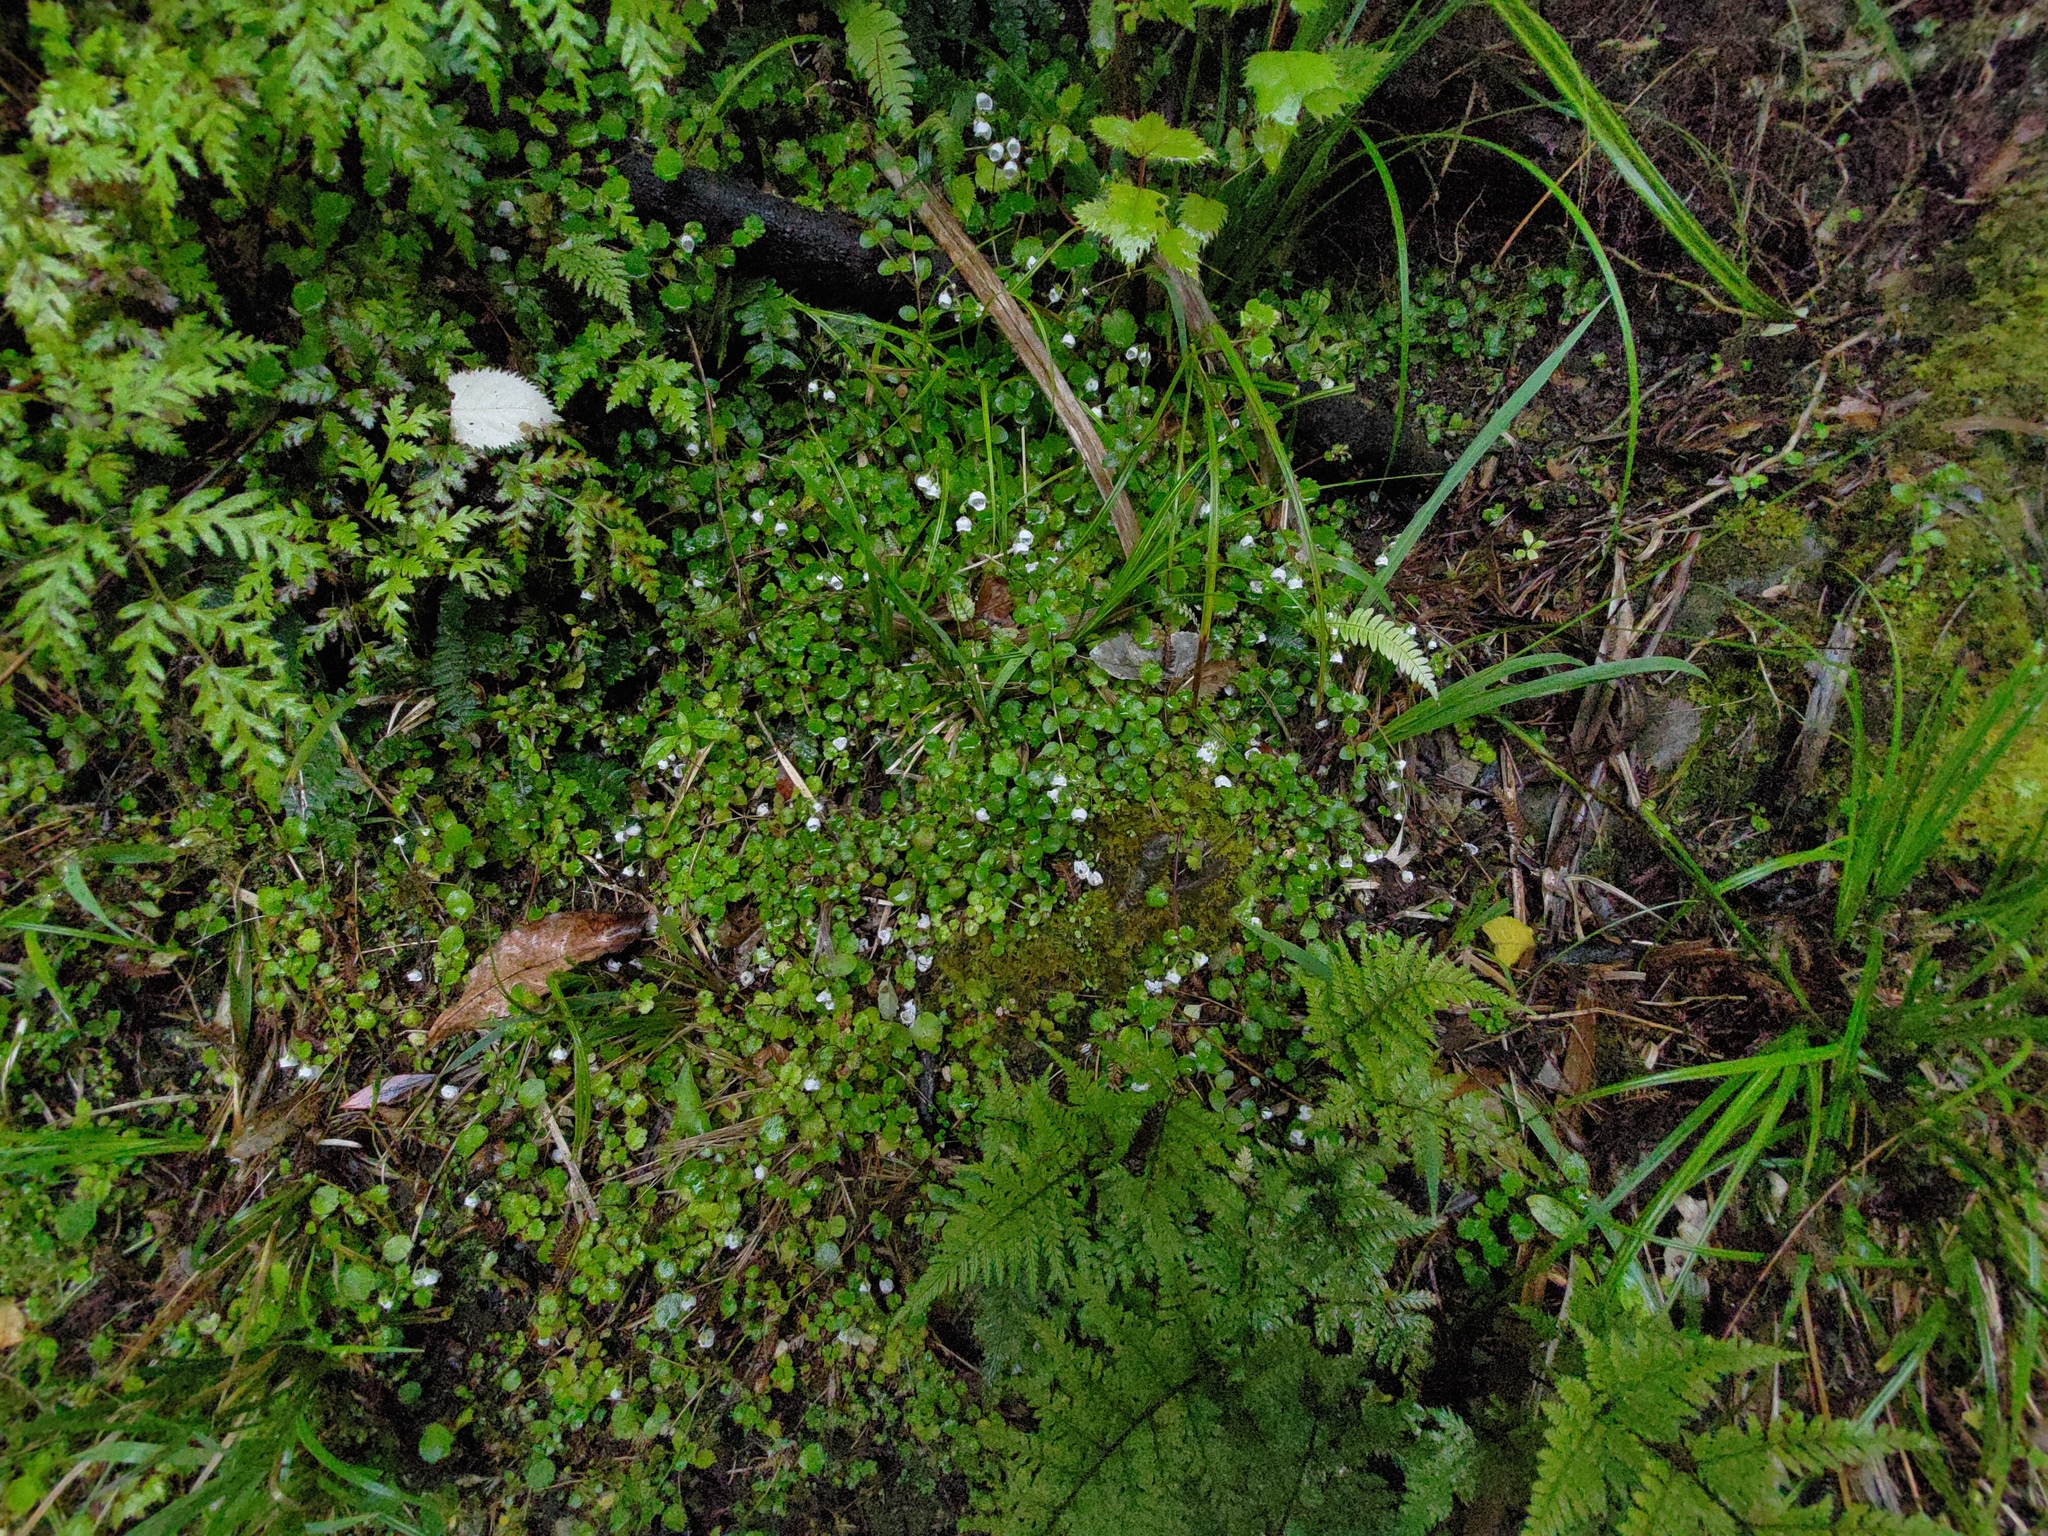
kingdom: Plantae
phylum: Tracheophyta
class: Magnoliopsida
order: Lamiales
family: Calceolariaceae
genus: Jovellana
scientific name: Jovellana repens
